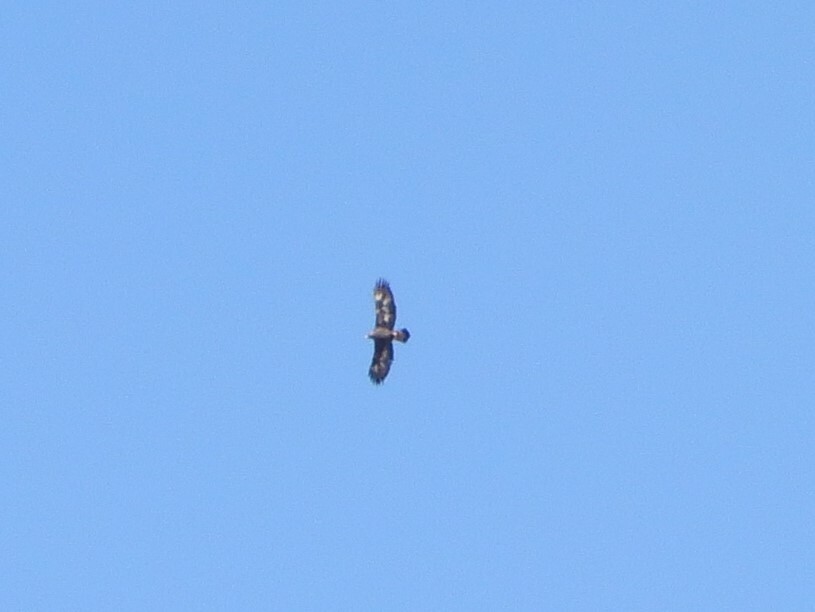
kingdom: Animalia
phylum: Chordata
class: Aves
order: Accipitriformes
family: Accipitridae
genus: Aquila
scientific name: Aquila chrysaetos
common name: Golden eagle
